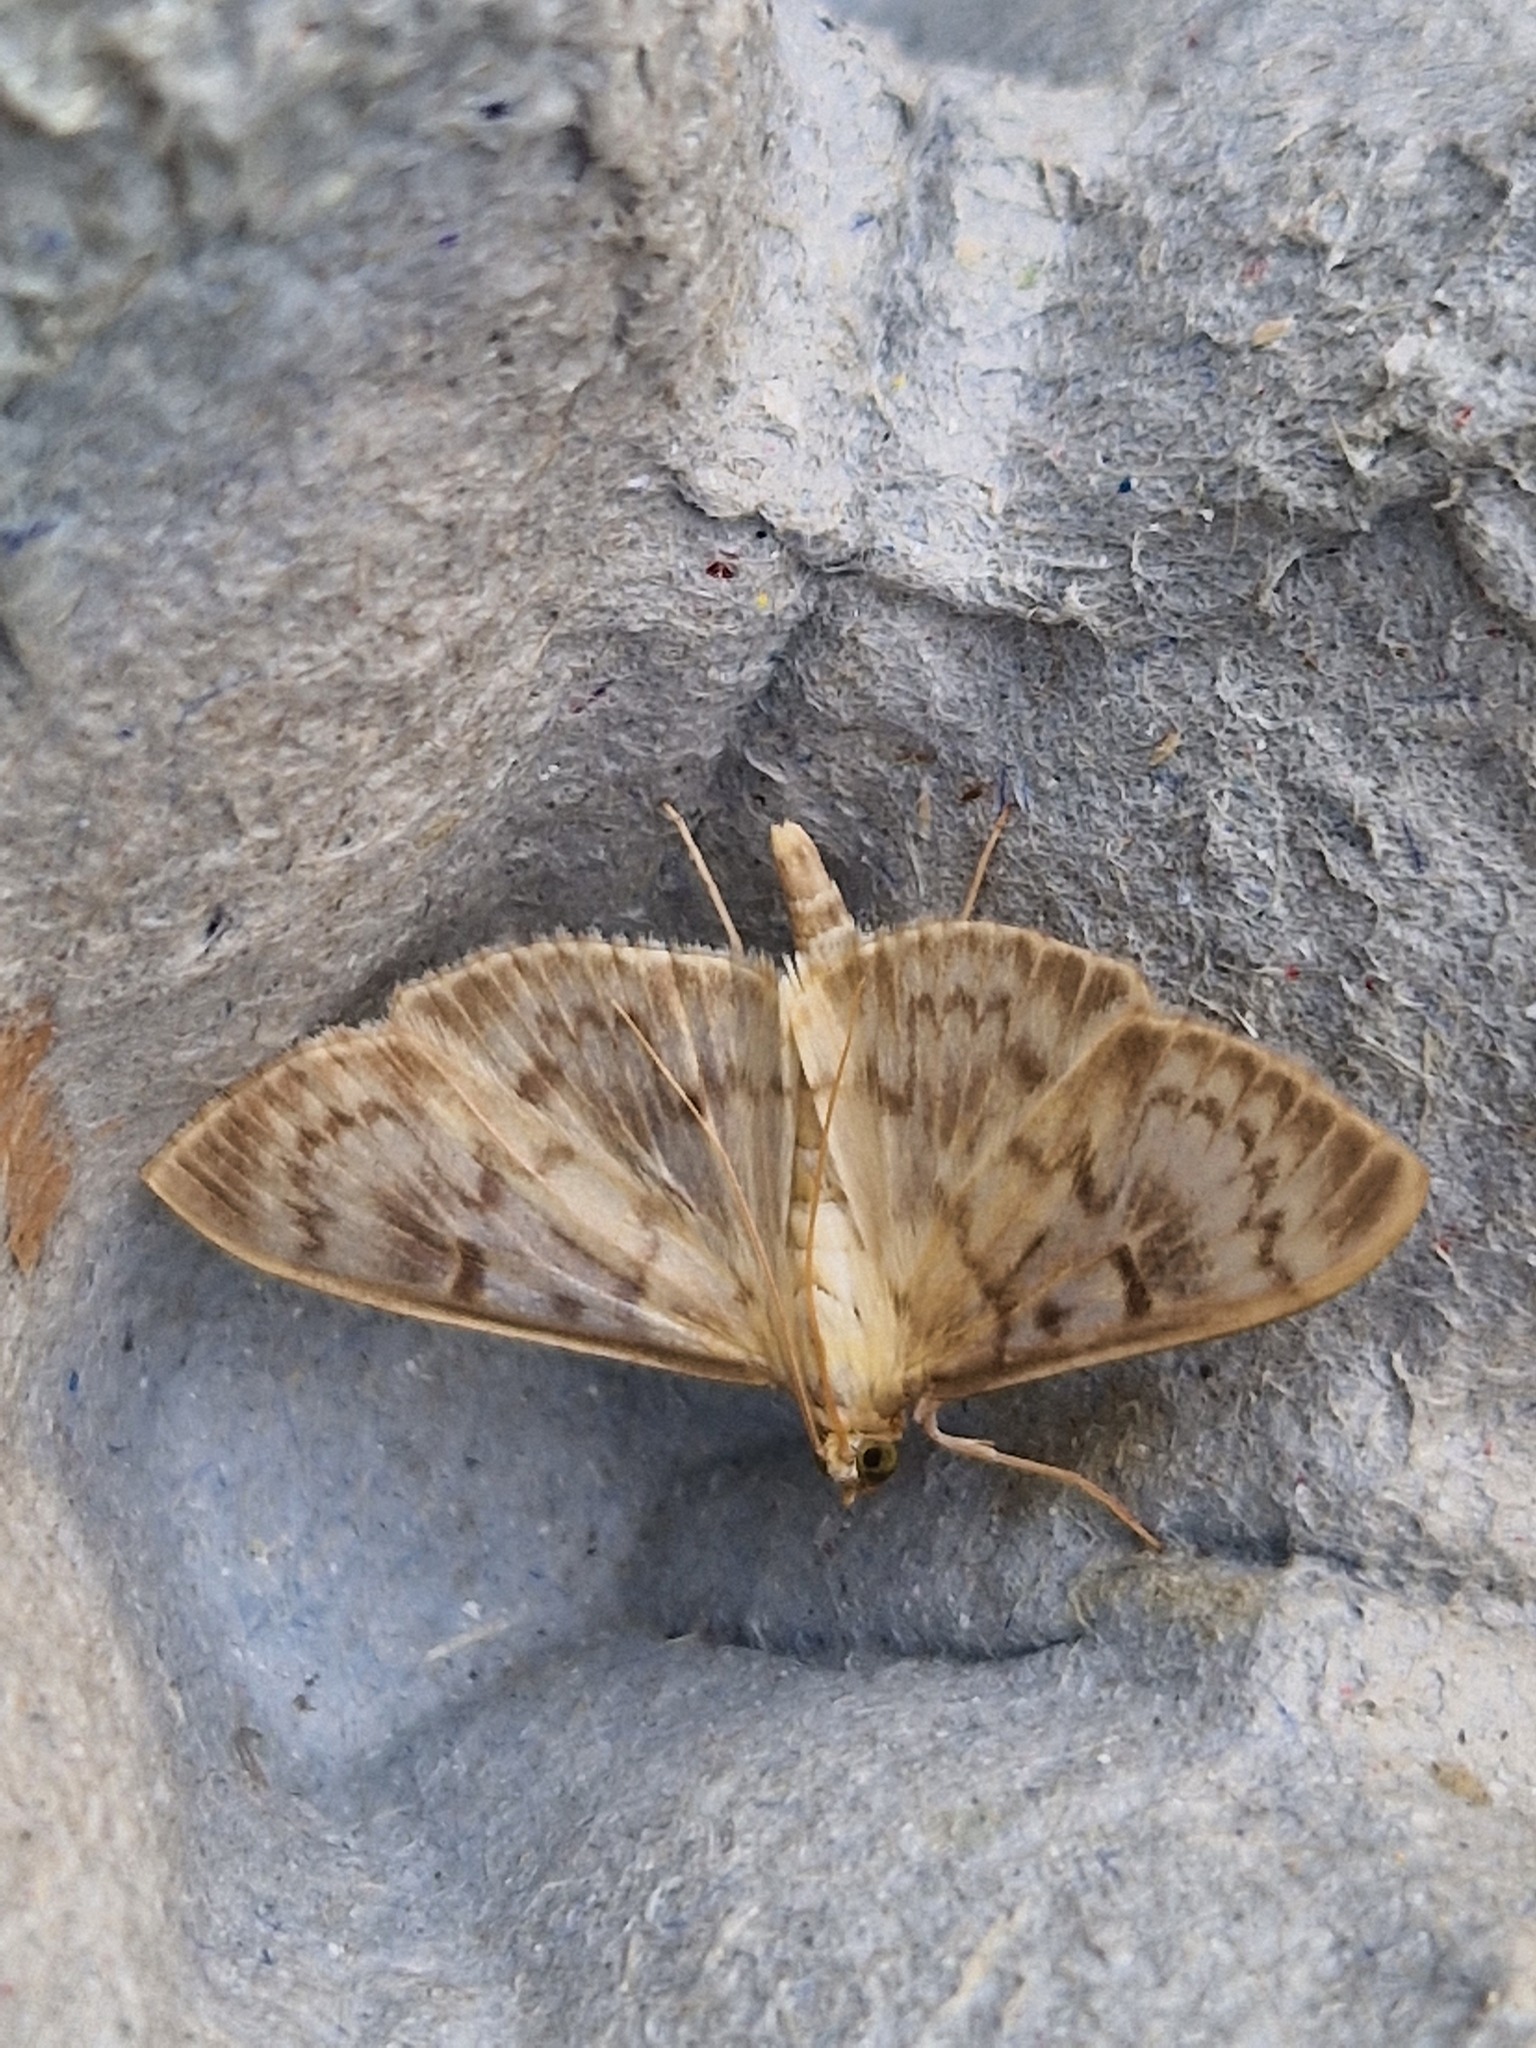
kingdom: Animalia
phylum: Arthropoda
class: Insecta
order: Lepidoptera
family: Crambidae
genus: Patania
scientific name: Patania ruralis
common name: Mother of pearl
